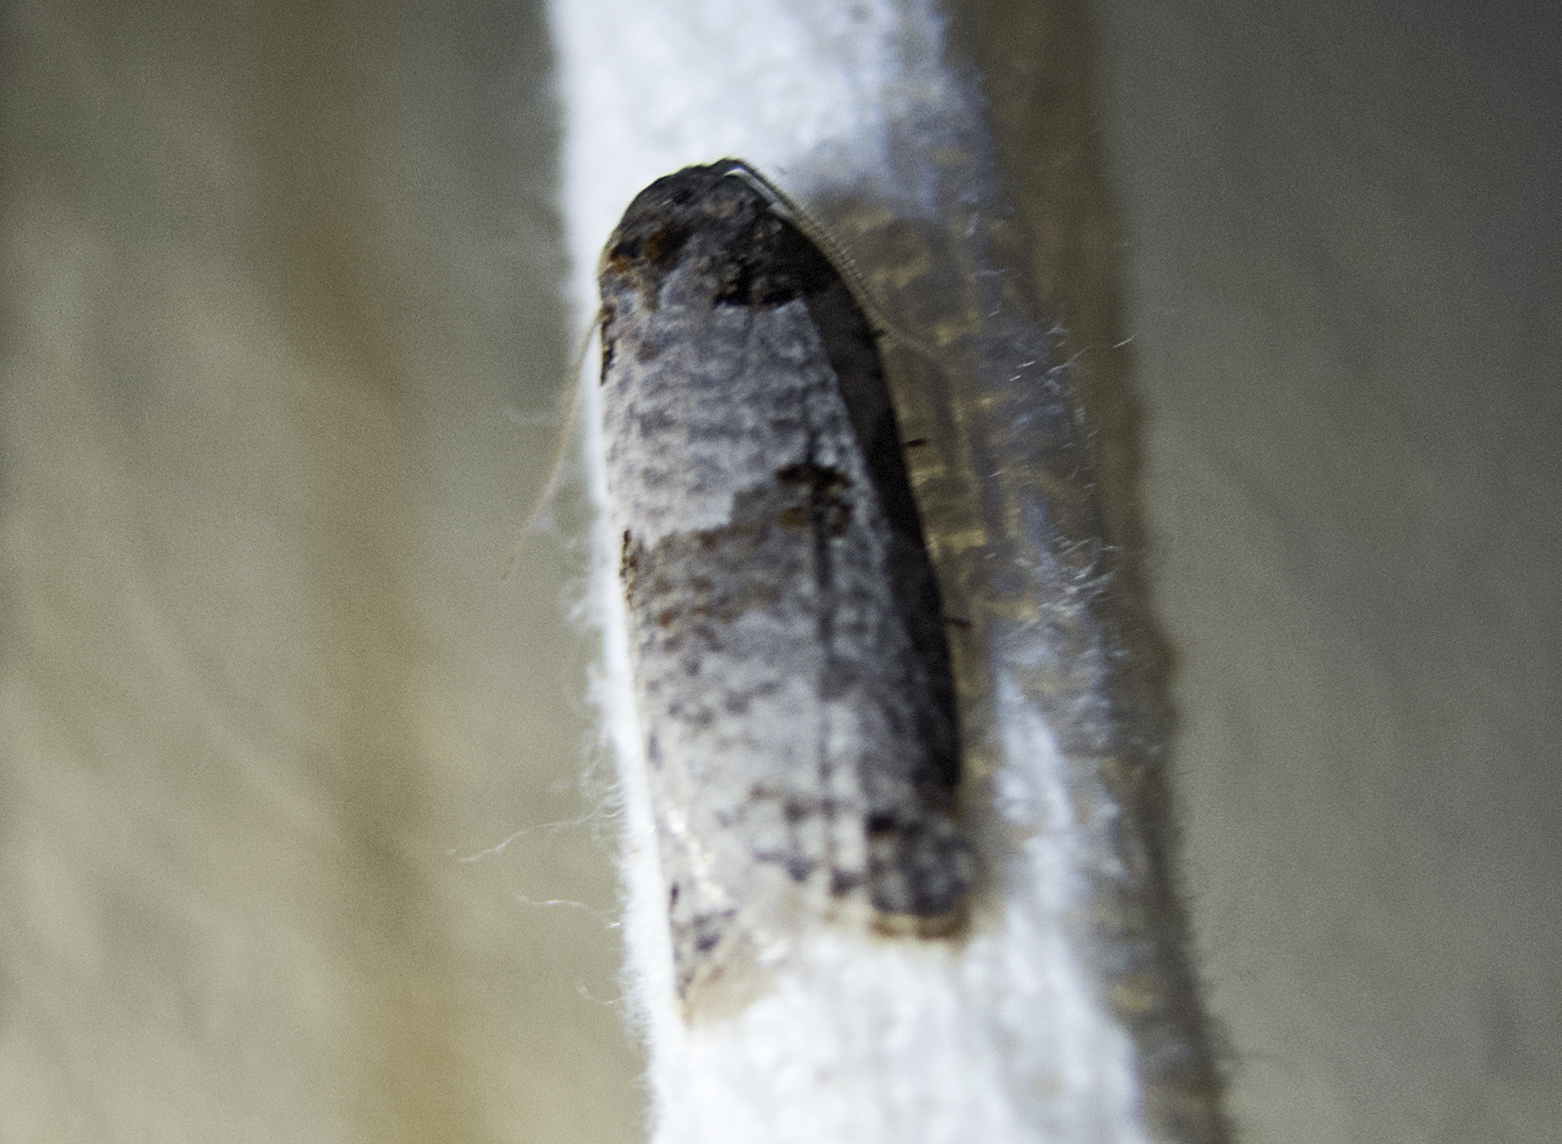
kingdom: Animalia
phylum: Arthropoda
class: Insecta
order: Lepidoptera
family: Tortricidae
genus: Pseudeulia
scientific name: Pseudeulia asinana
